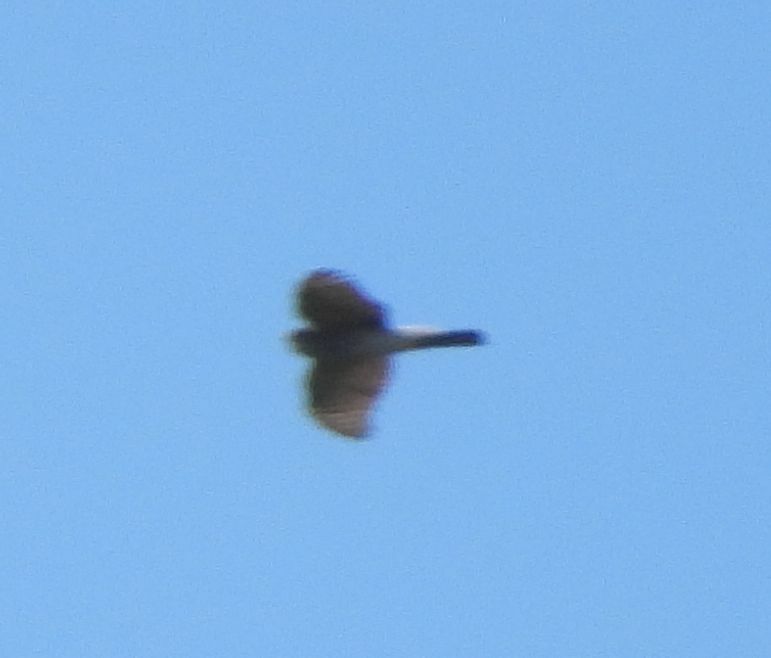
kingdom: Animalia
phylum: Chordata
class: Aves
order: Accipitriformes
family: Accipitridae
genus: Accipiter
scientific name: Accipiter striatus
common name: Sharp-shinned hawk
